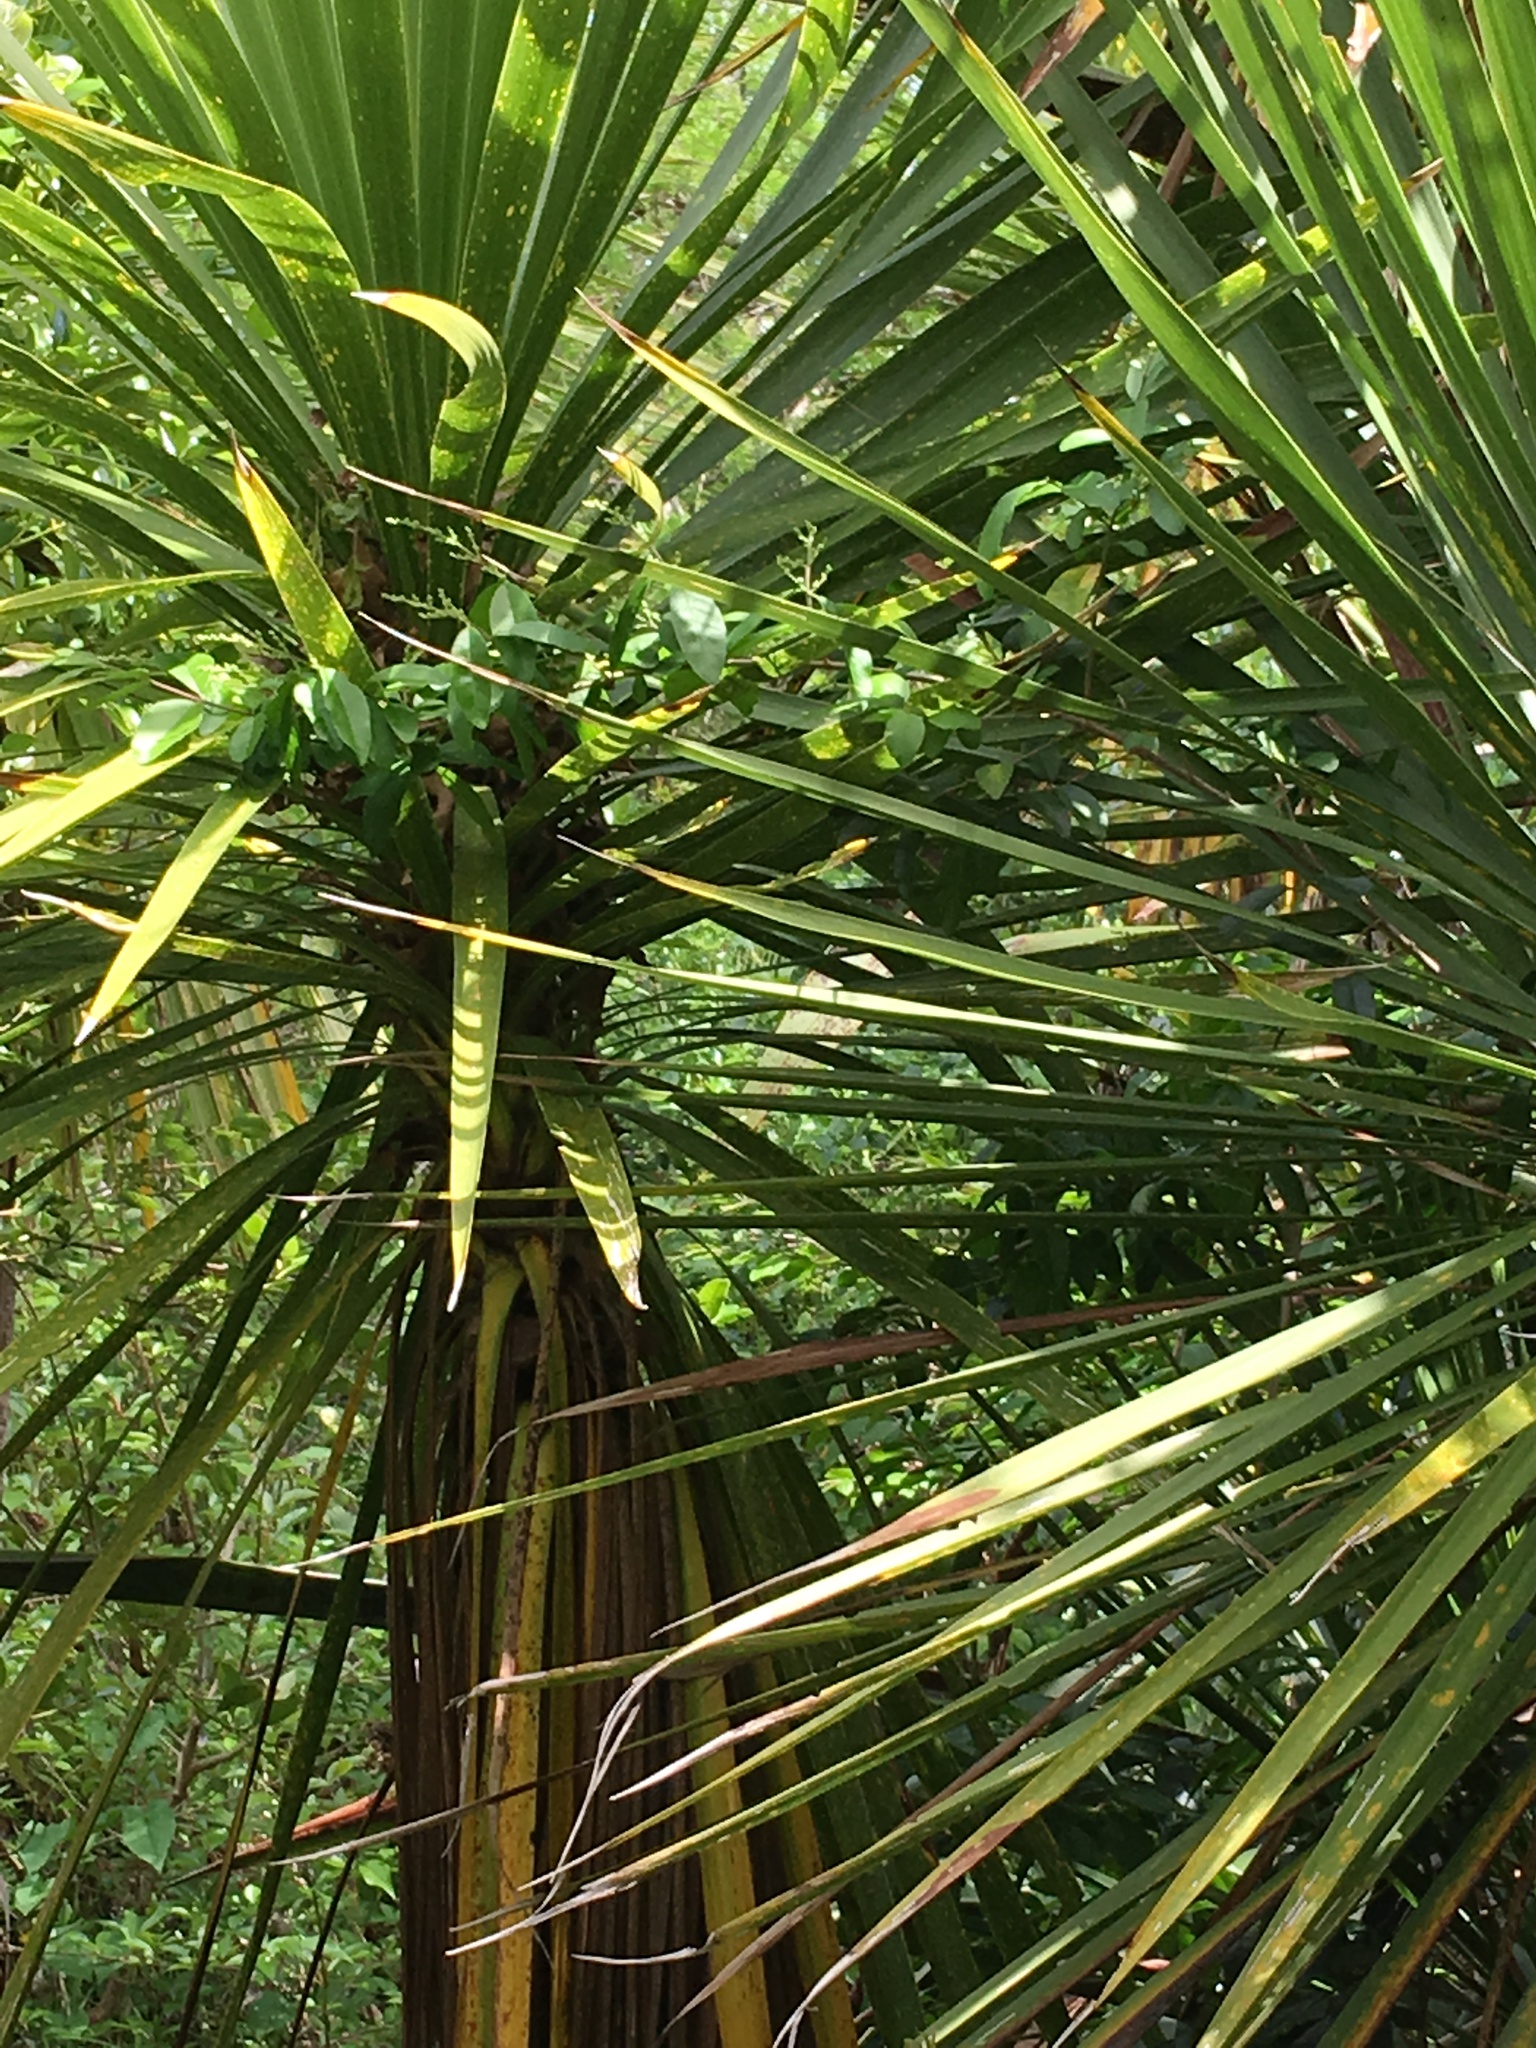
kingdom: Plantae
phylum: Tracheophyta
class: Magnoliopsida
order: Lamiales
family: Oleaceae
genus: Ligustrum
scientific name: Ligustrum sinense
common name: Chinese privet
